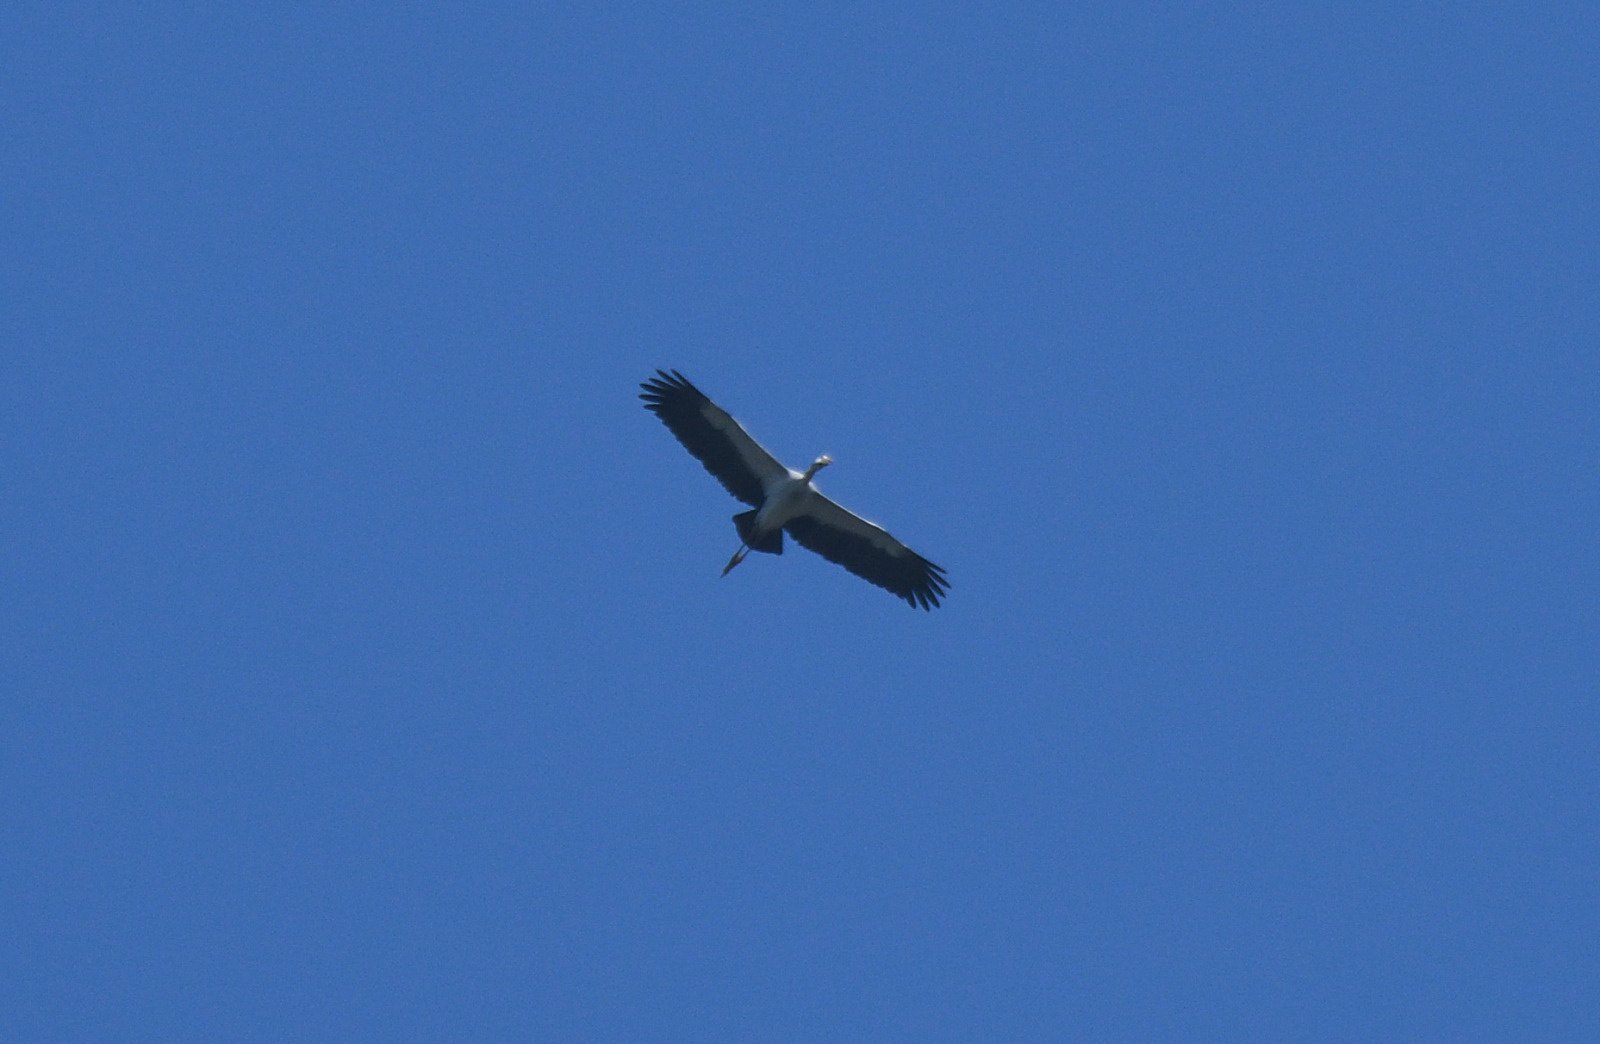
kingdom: Animalia
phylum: Chordata
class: Aves
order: Ciconiiformes
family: Ciconiidae
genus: Anastomus
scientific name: Anastomus oscitans
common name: Asian openbill
